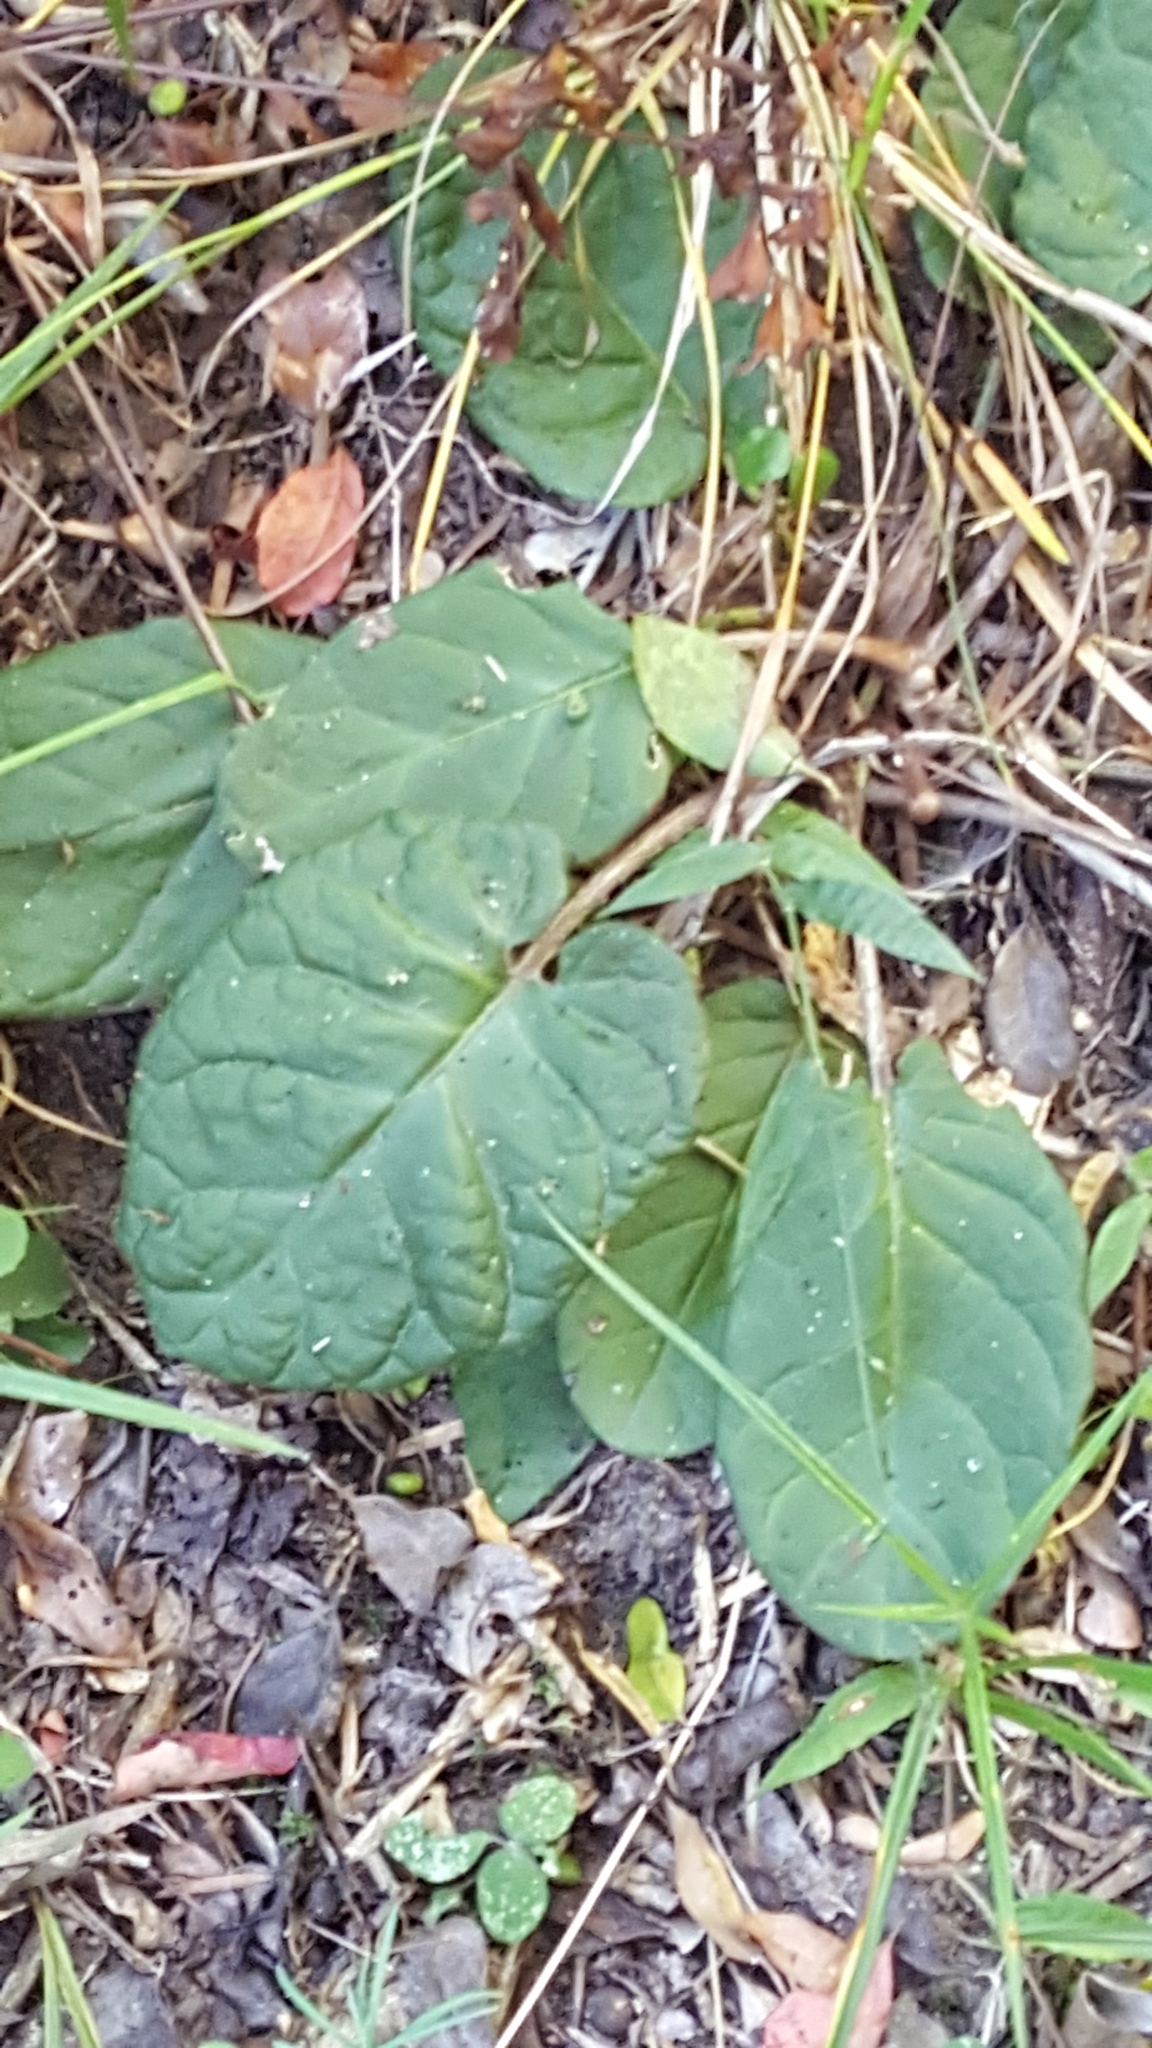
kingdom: Plantae
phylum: Tracheophyta
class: Magnoliopsida
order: Asterales
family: Asteraceae
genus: Piloselloides
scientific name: Piloselloides cordata
